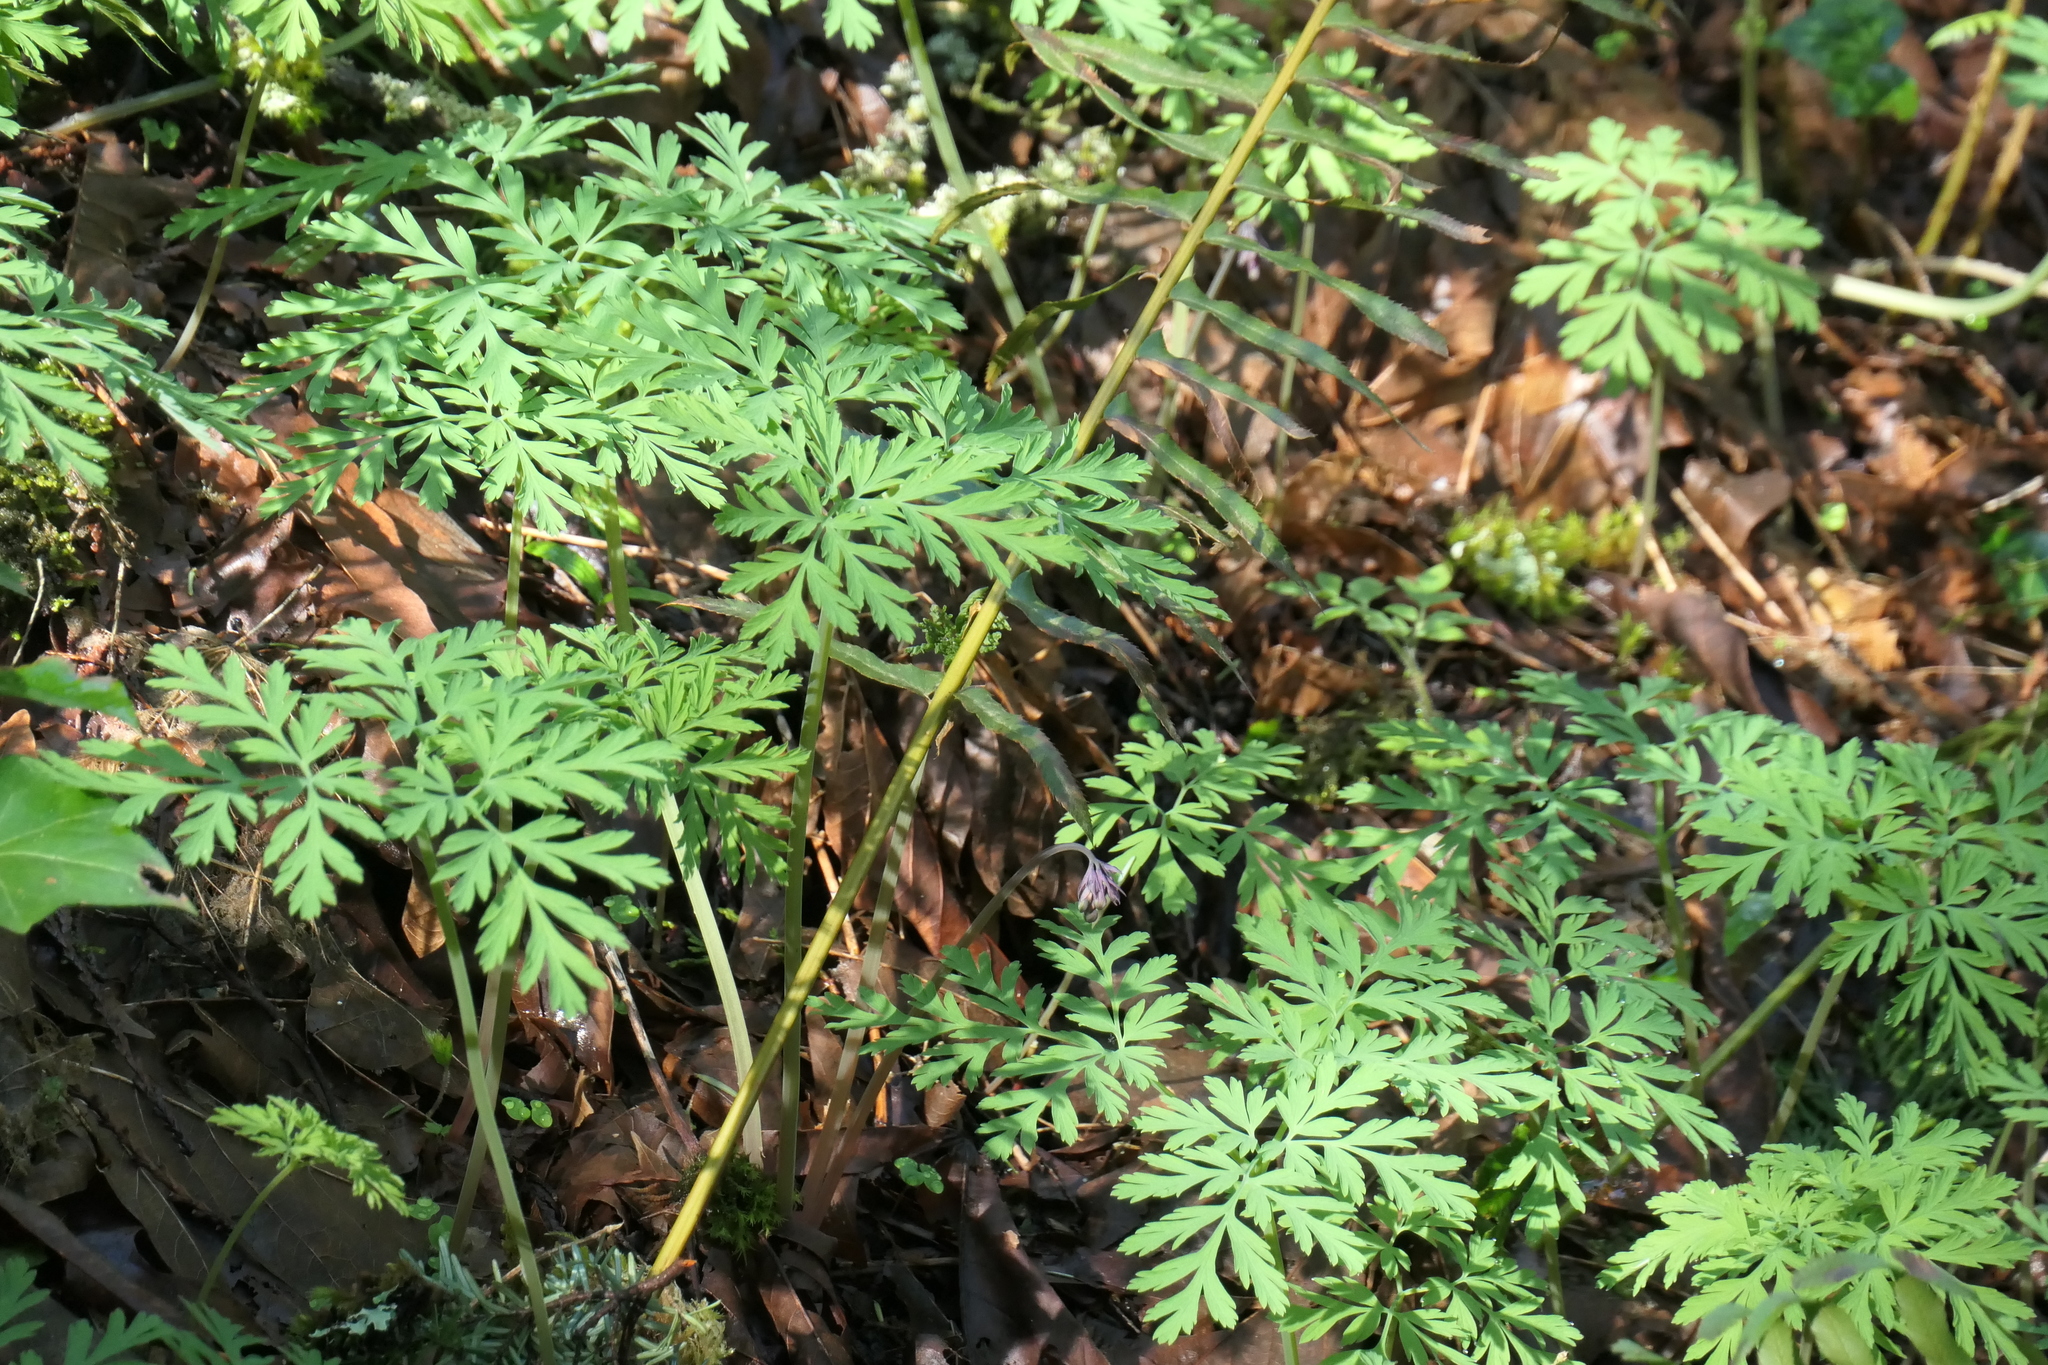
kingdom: Plantae
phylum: Tracheophyta
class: Magnoliopsida
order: Ranunculales
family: Papaveraceae
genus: Dicentra
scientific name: Dicentra formosa
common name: Bleeding-heart
